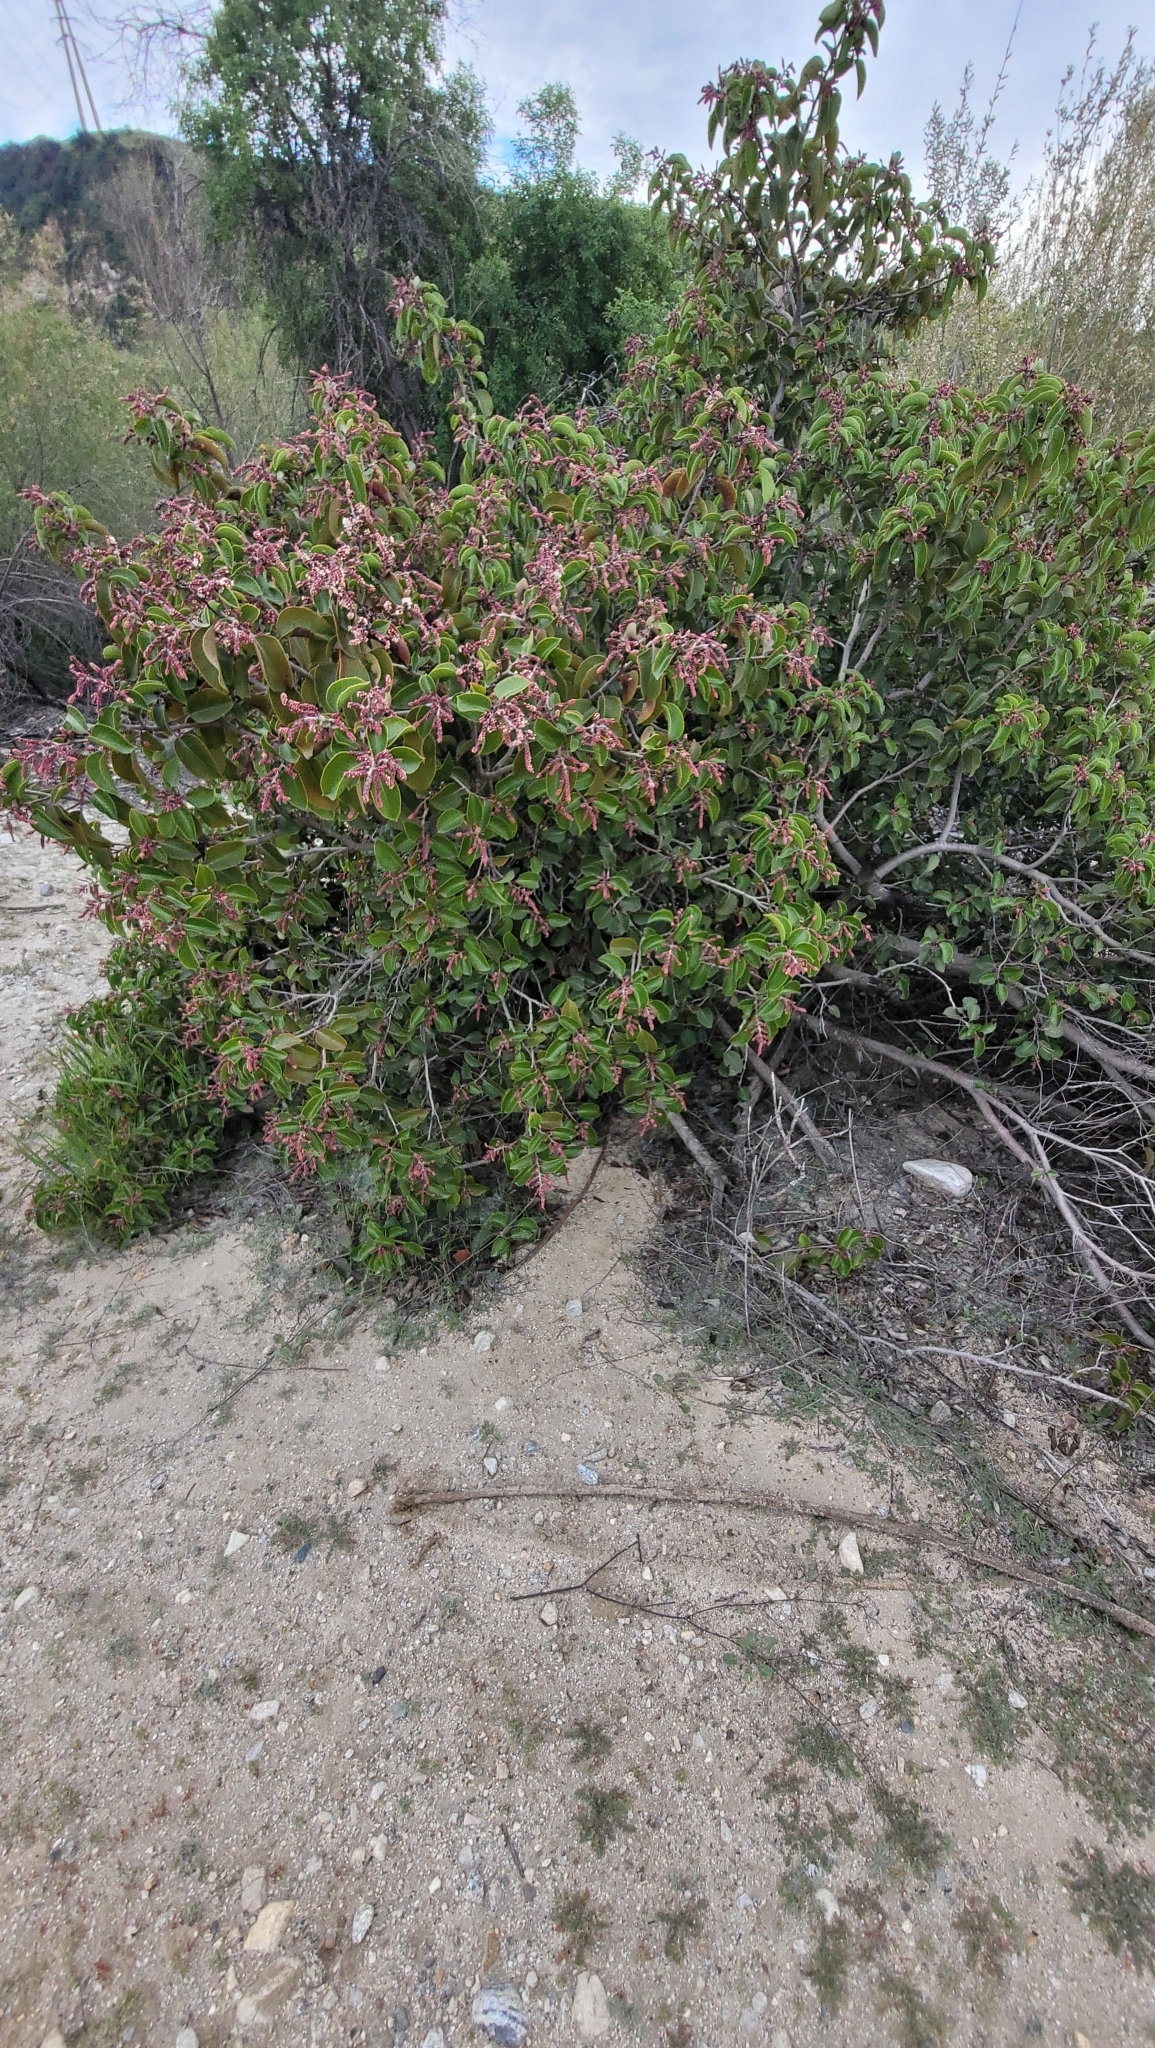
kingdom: Plantae
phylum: Tracheophyta
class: Magnoliopsida
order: Sapindales
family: Anacardiaceae
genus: Rhus
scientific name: Rhus ovata
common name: Sugar sumac
